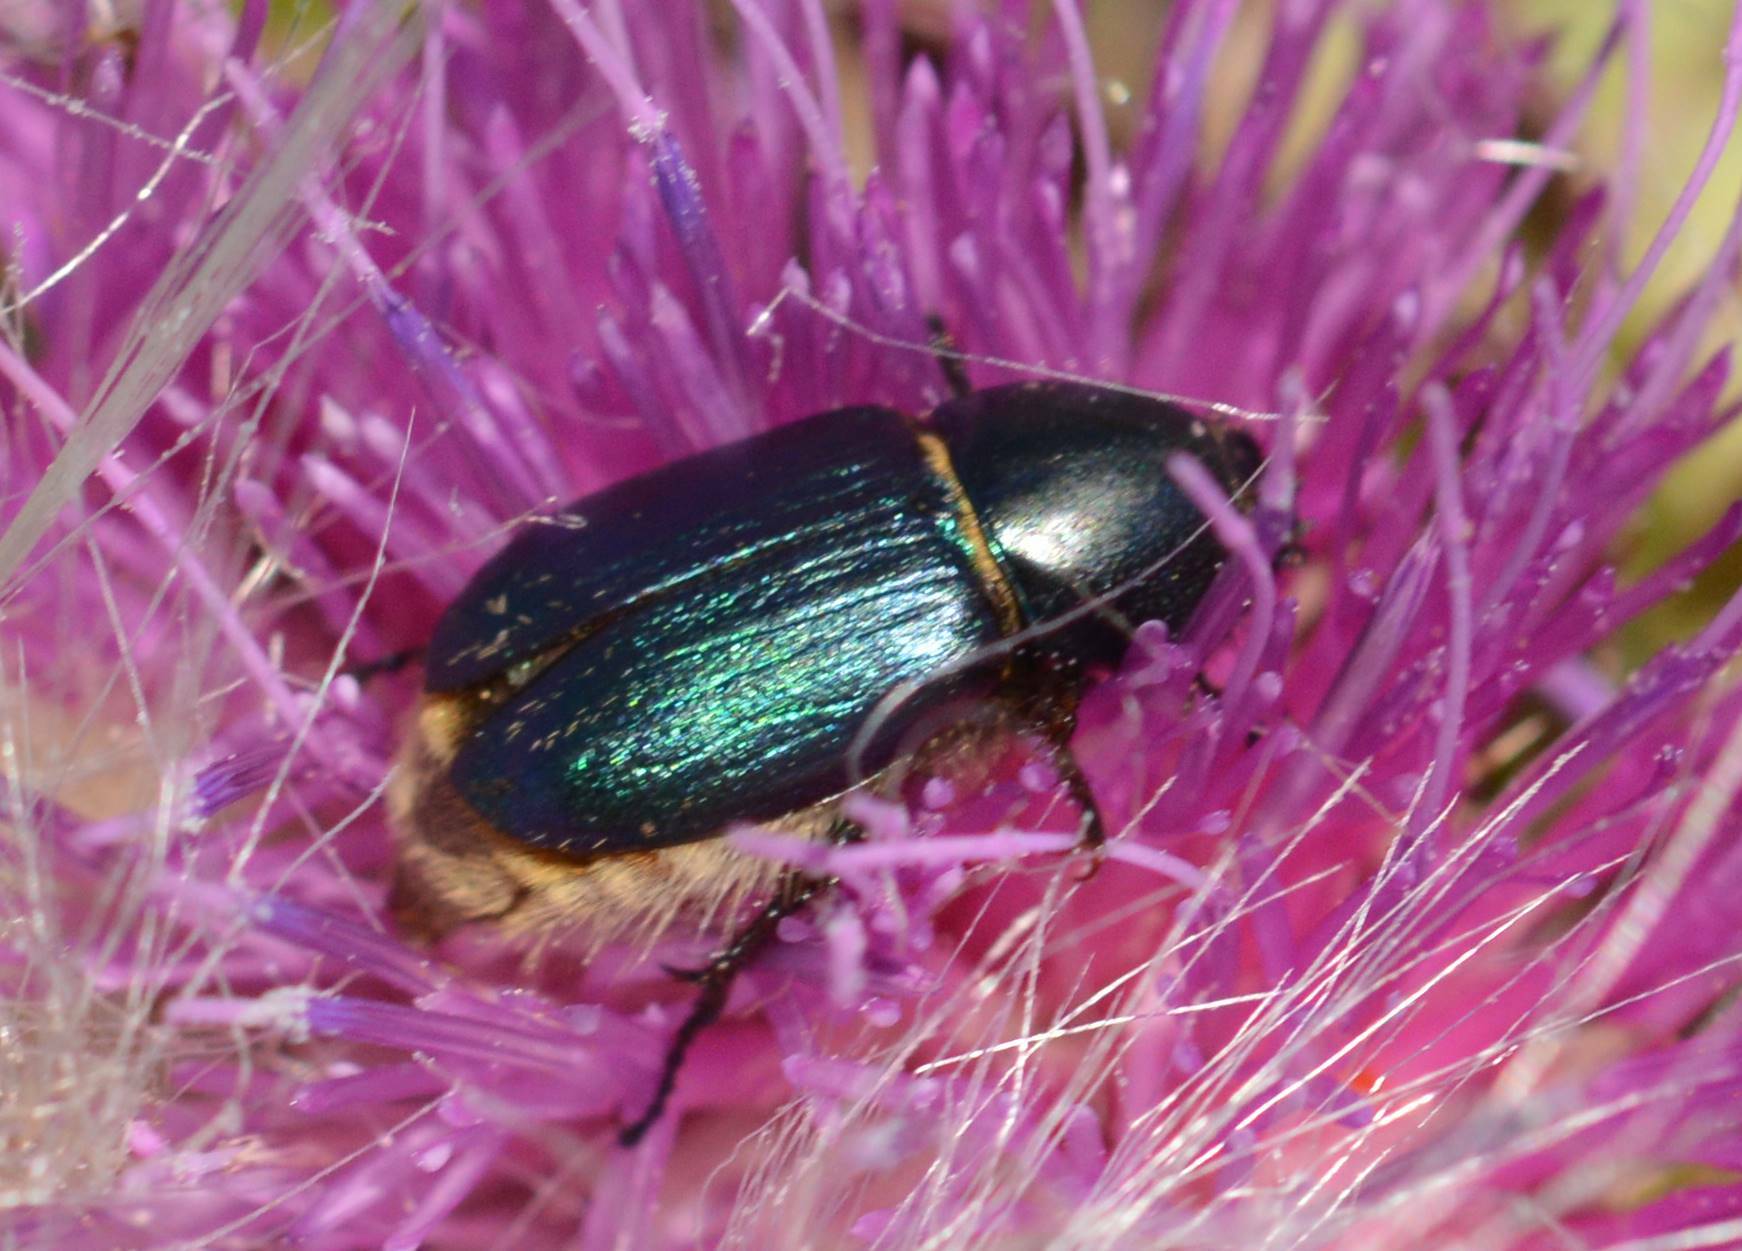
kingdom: Animalia
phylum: Arthropoda
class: Insecta
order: Coleoptera
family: Glaphyridae
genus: Glaphyrus
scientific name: Glaphyrus maurus
